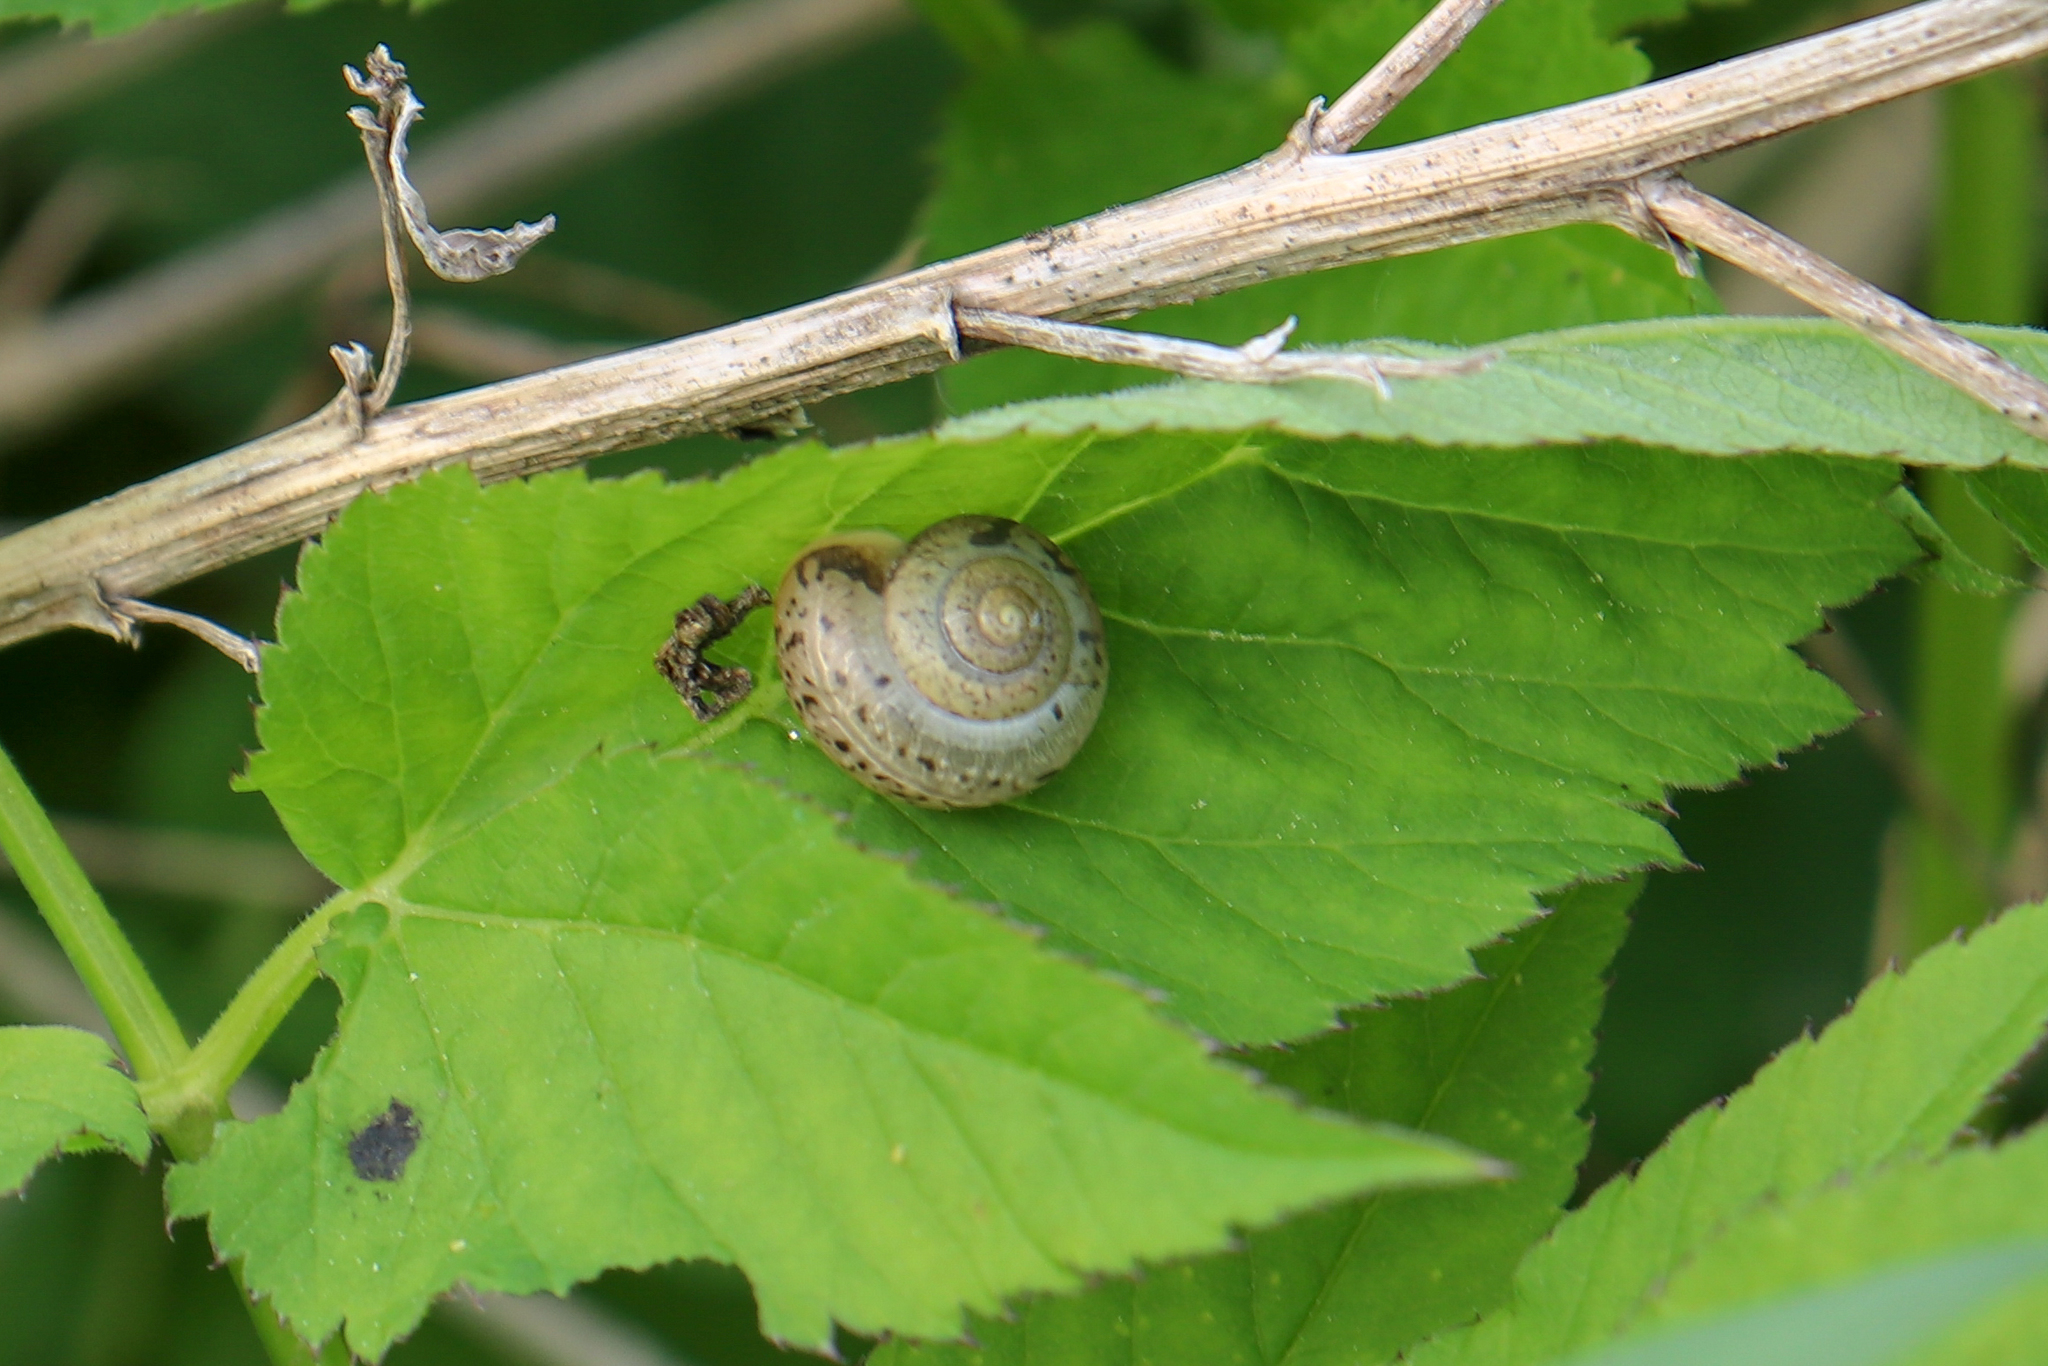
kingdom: Animalia
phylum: Mollusca
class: Gastropoda
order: Stylommatophora
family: Camaenidae
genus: Fruticicola
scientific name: Fruticicola fruticum
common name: Bush snail
